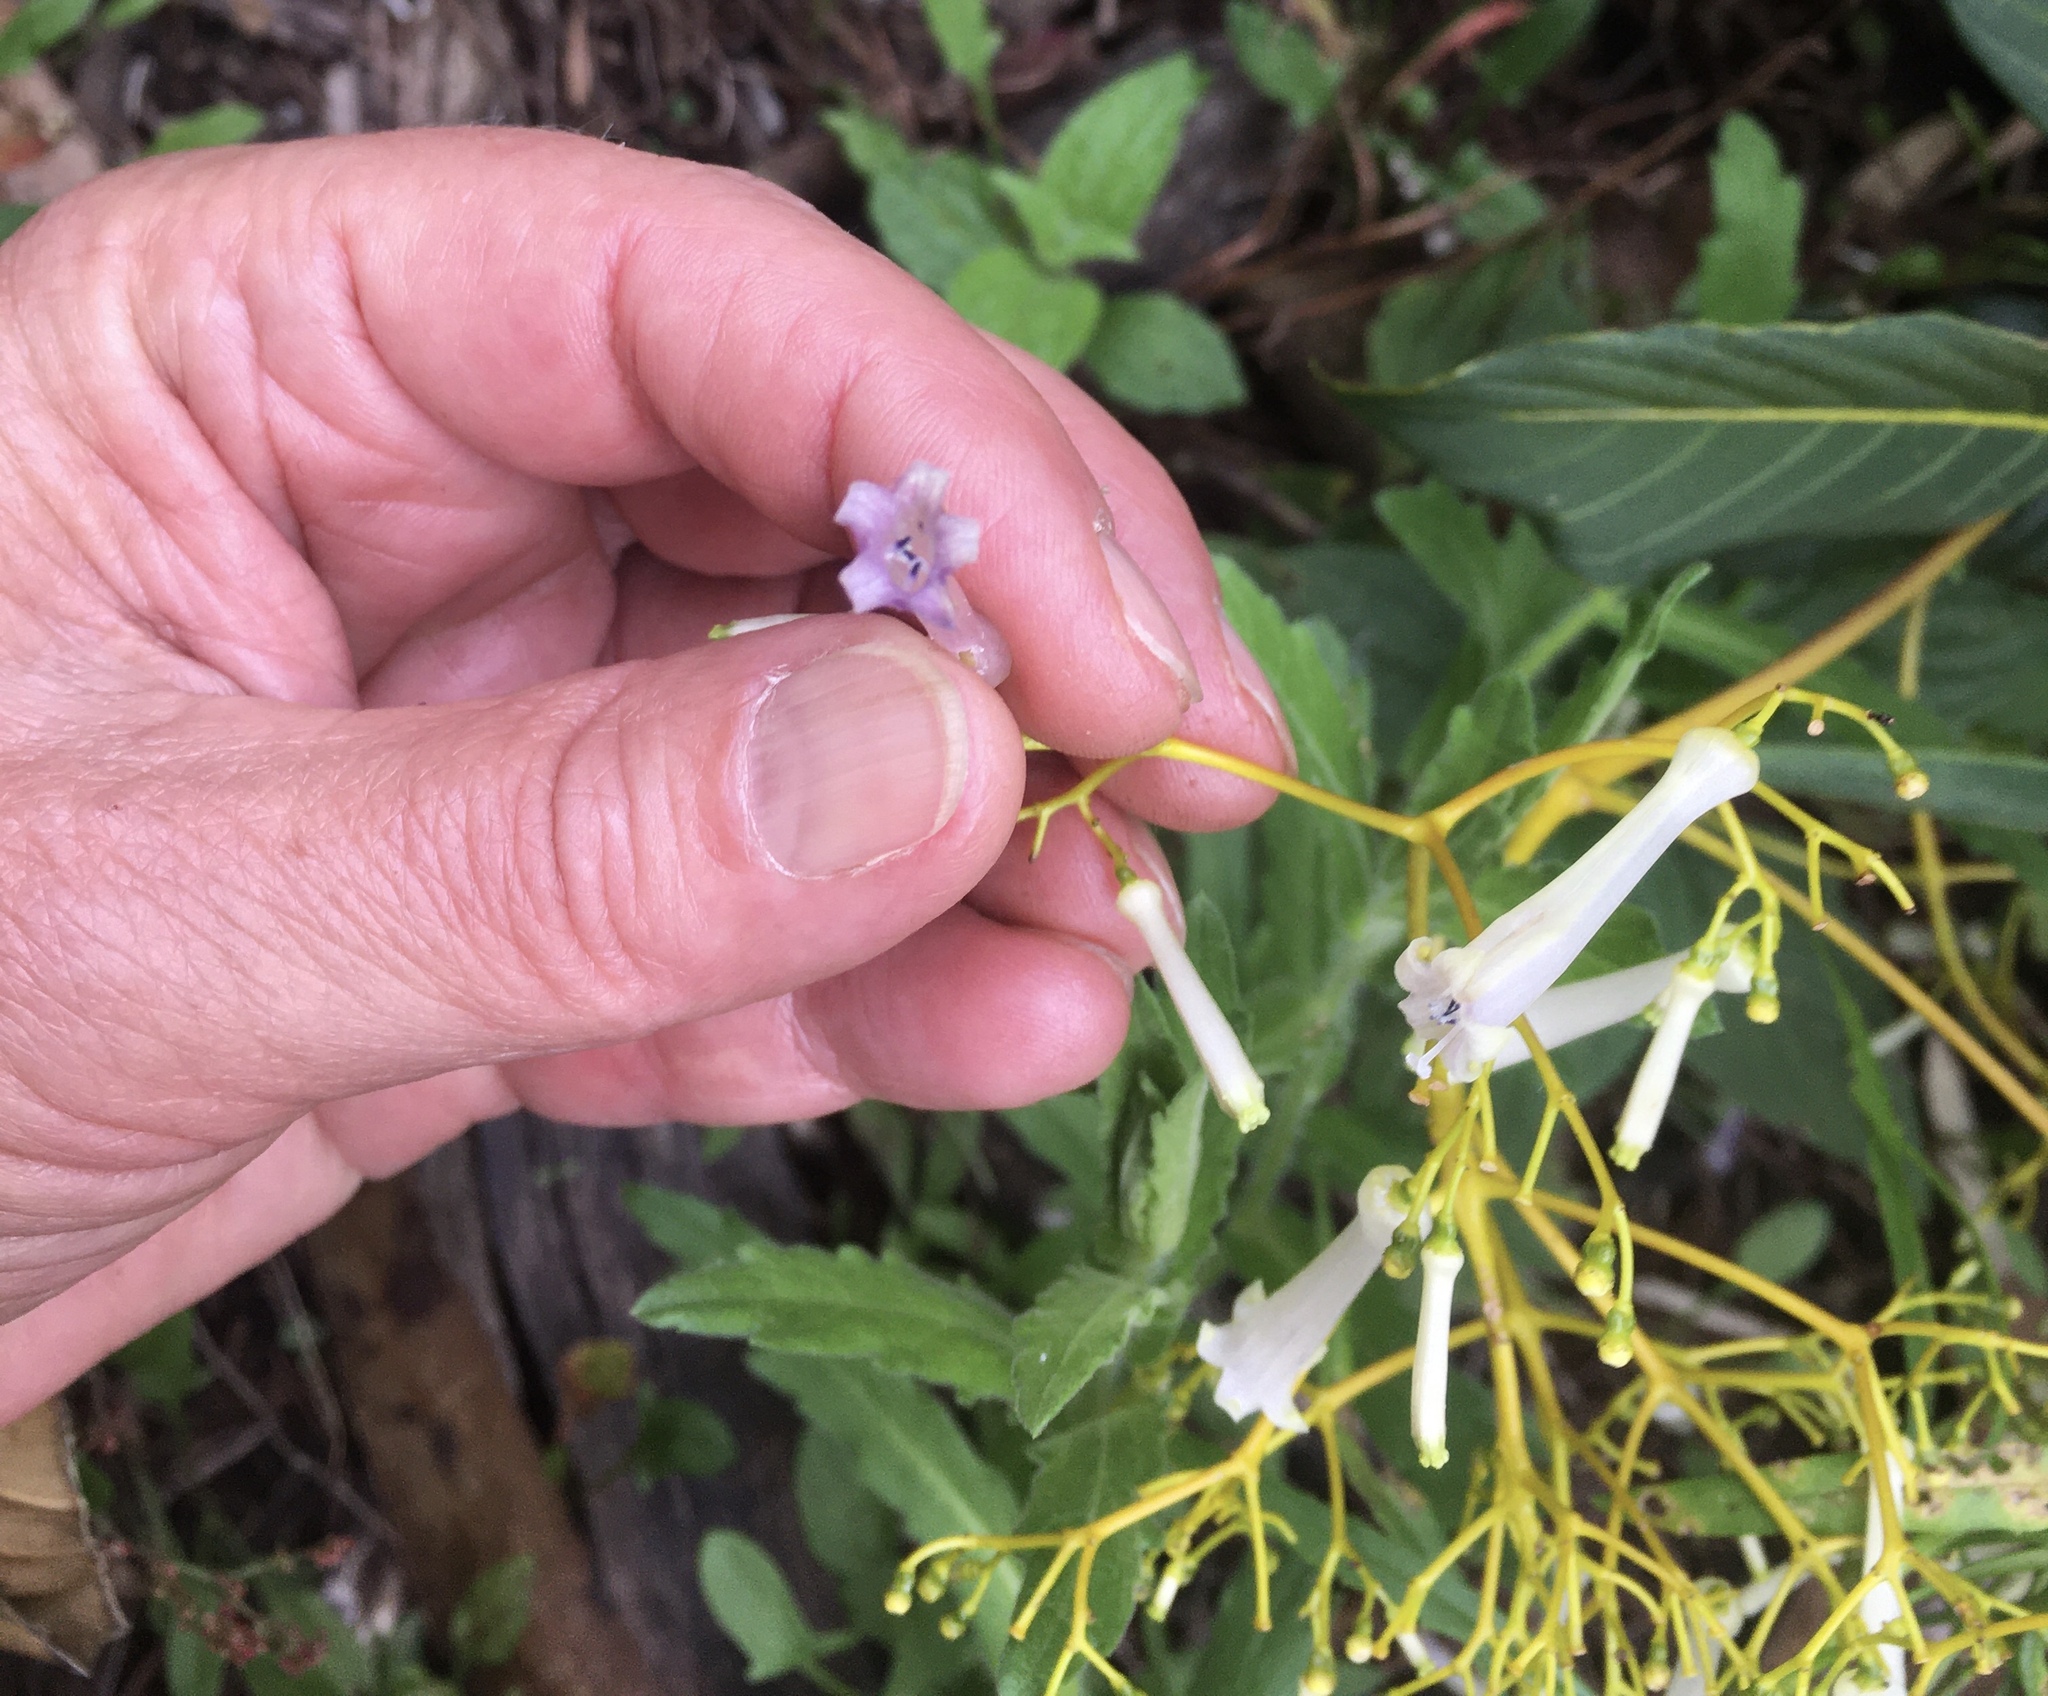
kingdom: Plantae
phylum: Tracheophyta
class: Magnoliopsida
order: Gentianales
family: Rubiaceae
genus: Palicourea
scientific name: Palicourea lineariflora
